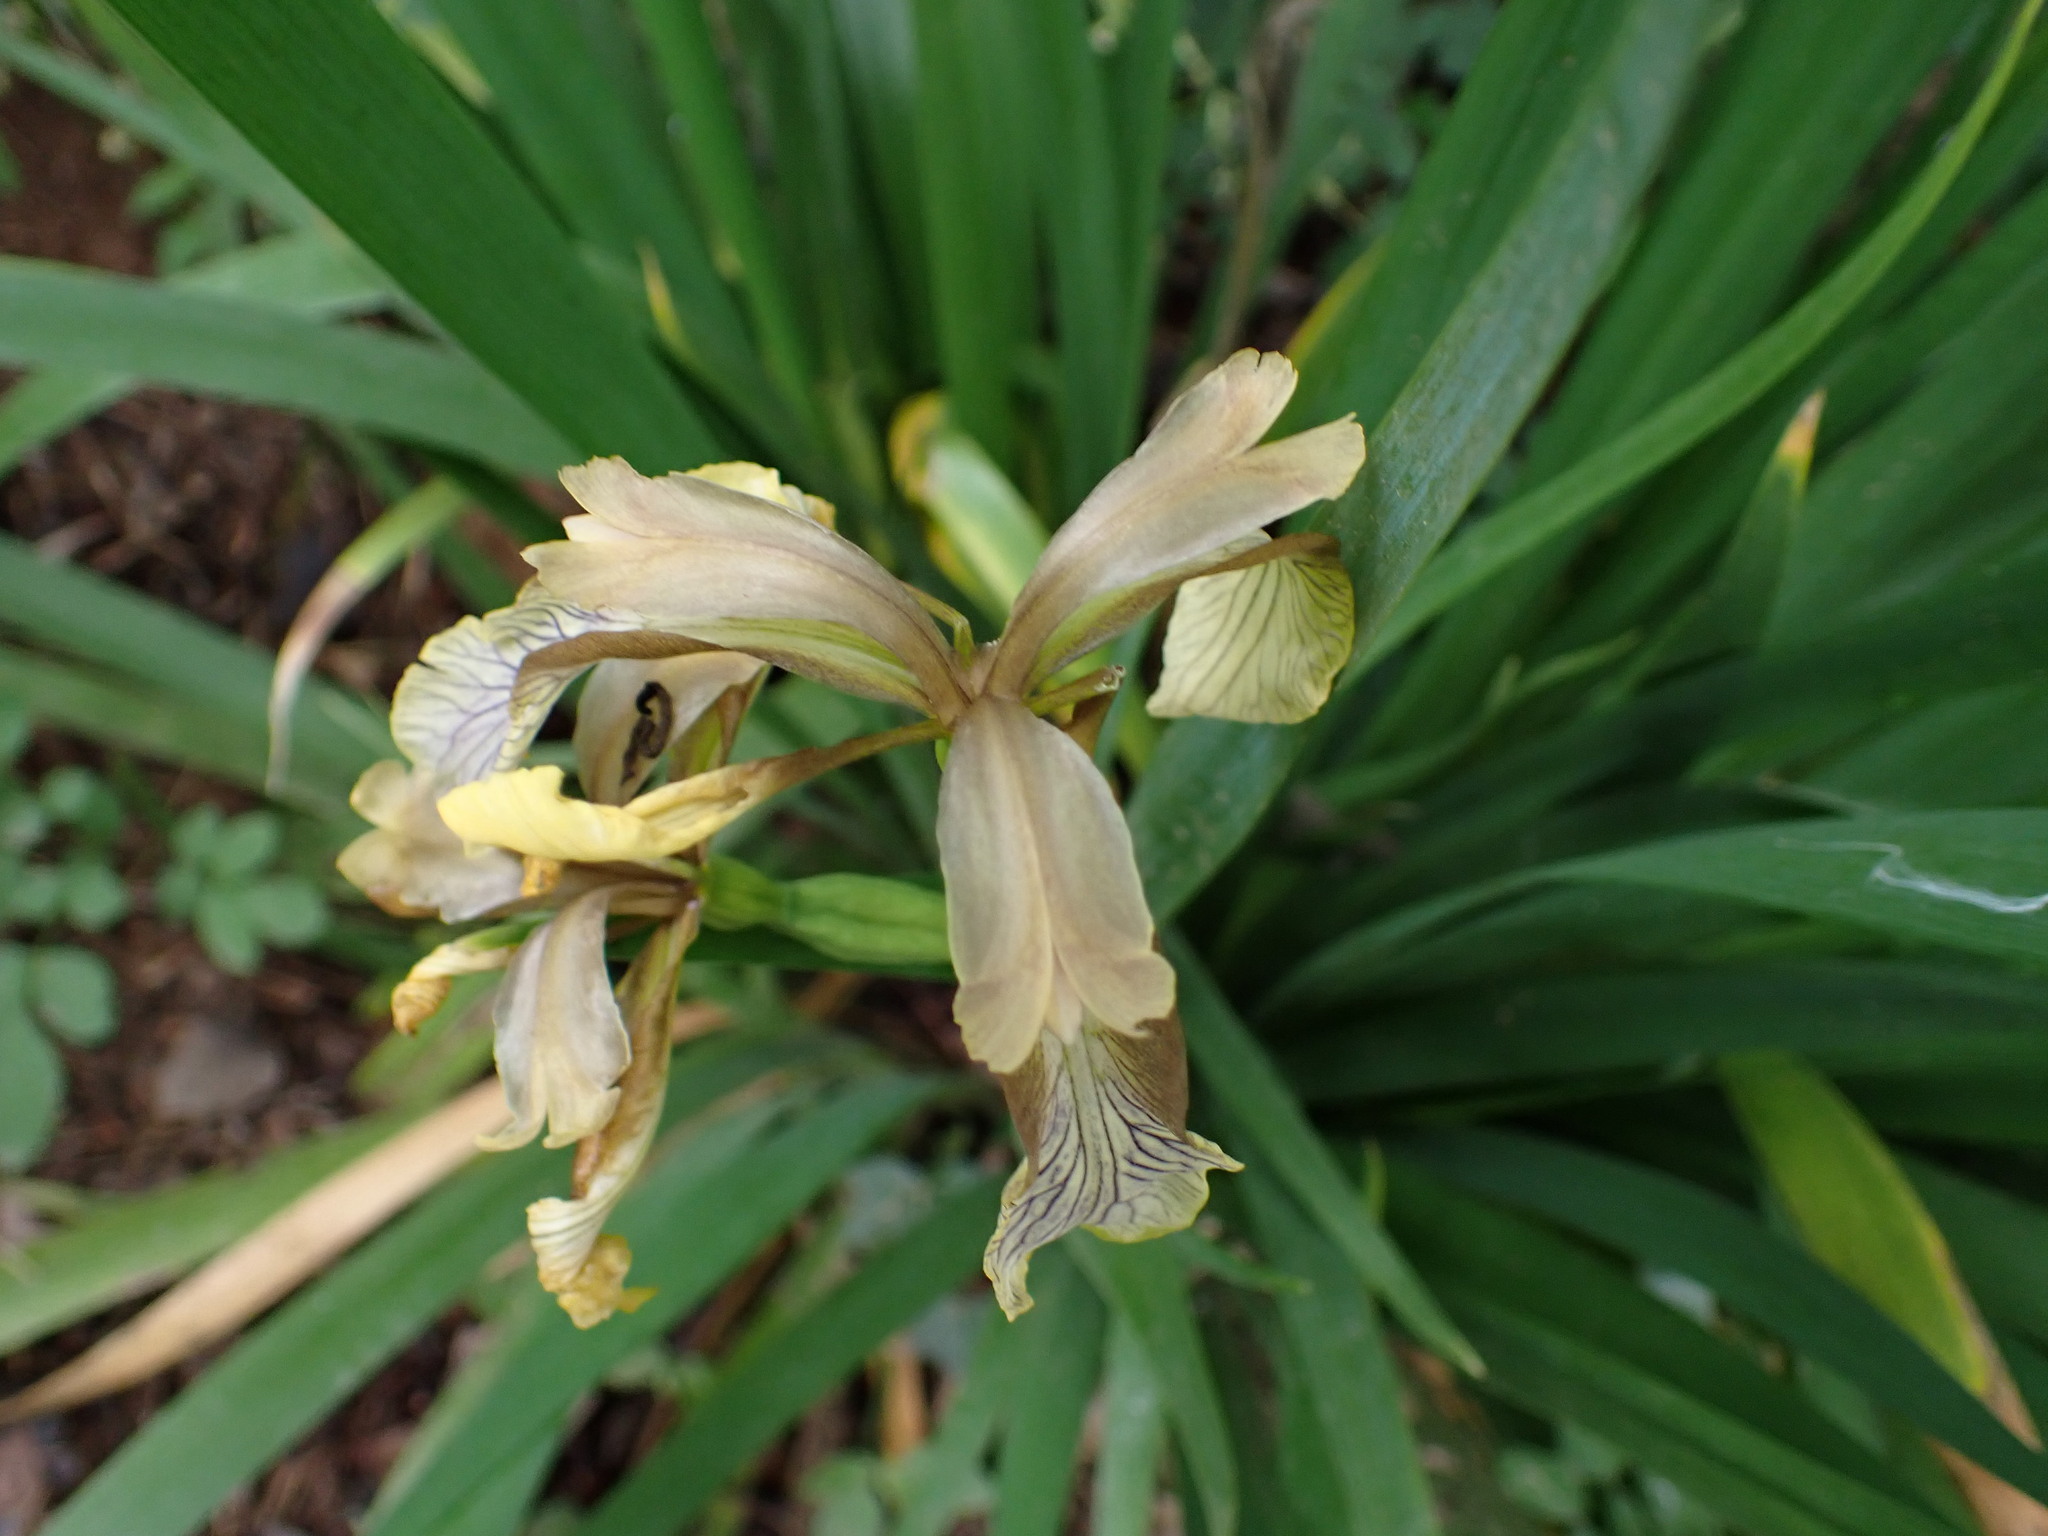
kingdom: Plantae
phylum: Tracheophyta
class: Liliopsida
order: Asparagales
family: Iridaceae
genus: Iris
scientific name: Iris foetidissima
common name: Stinking iris
